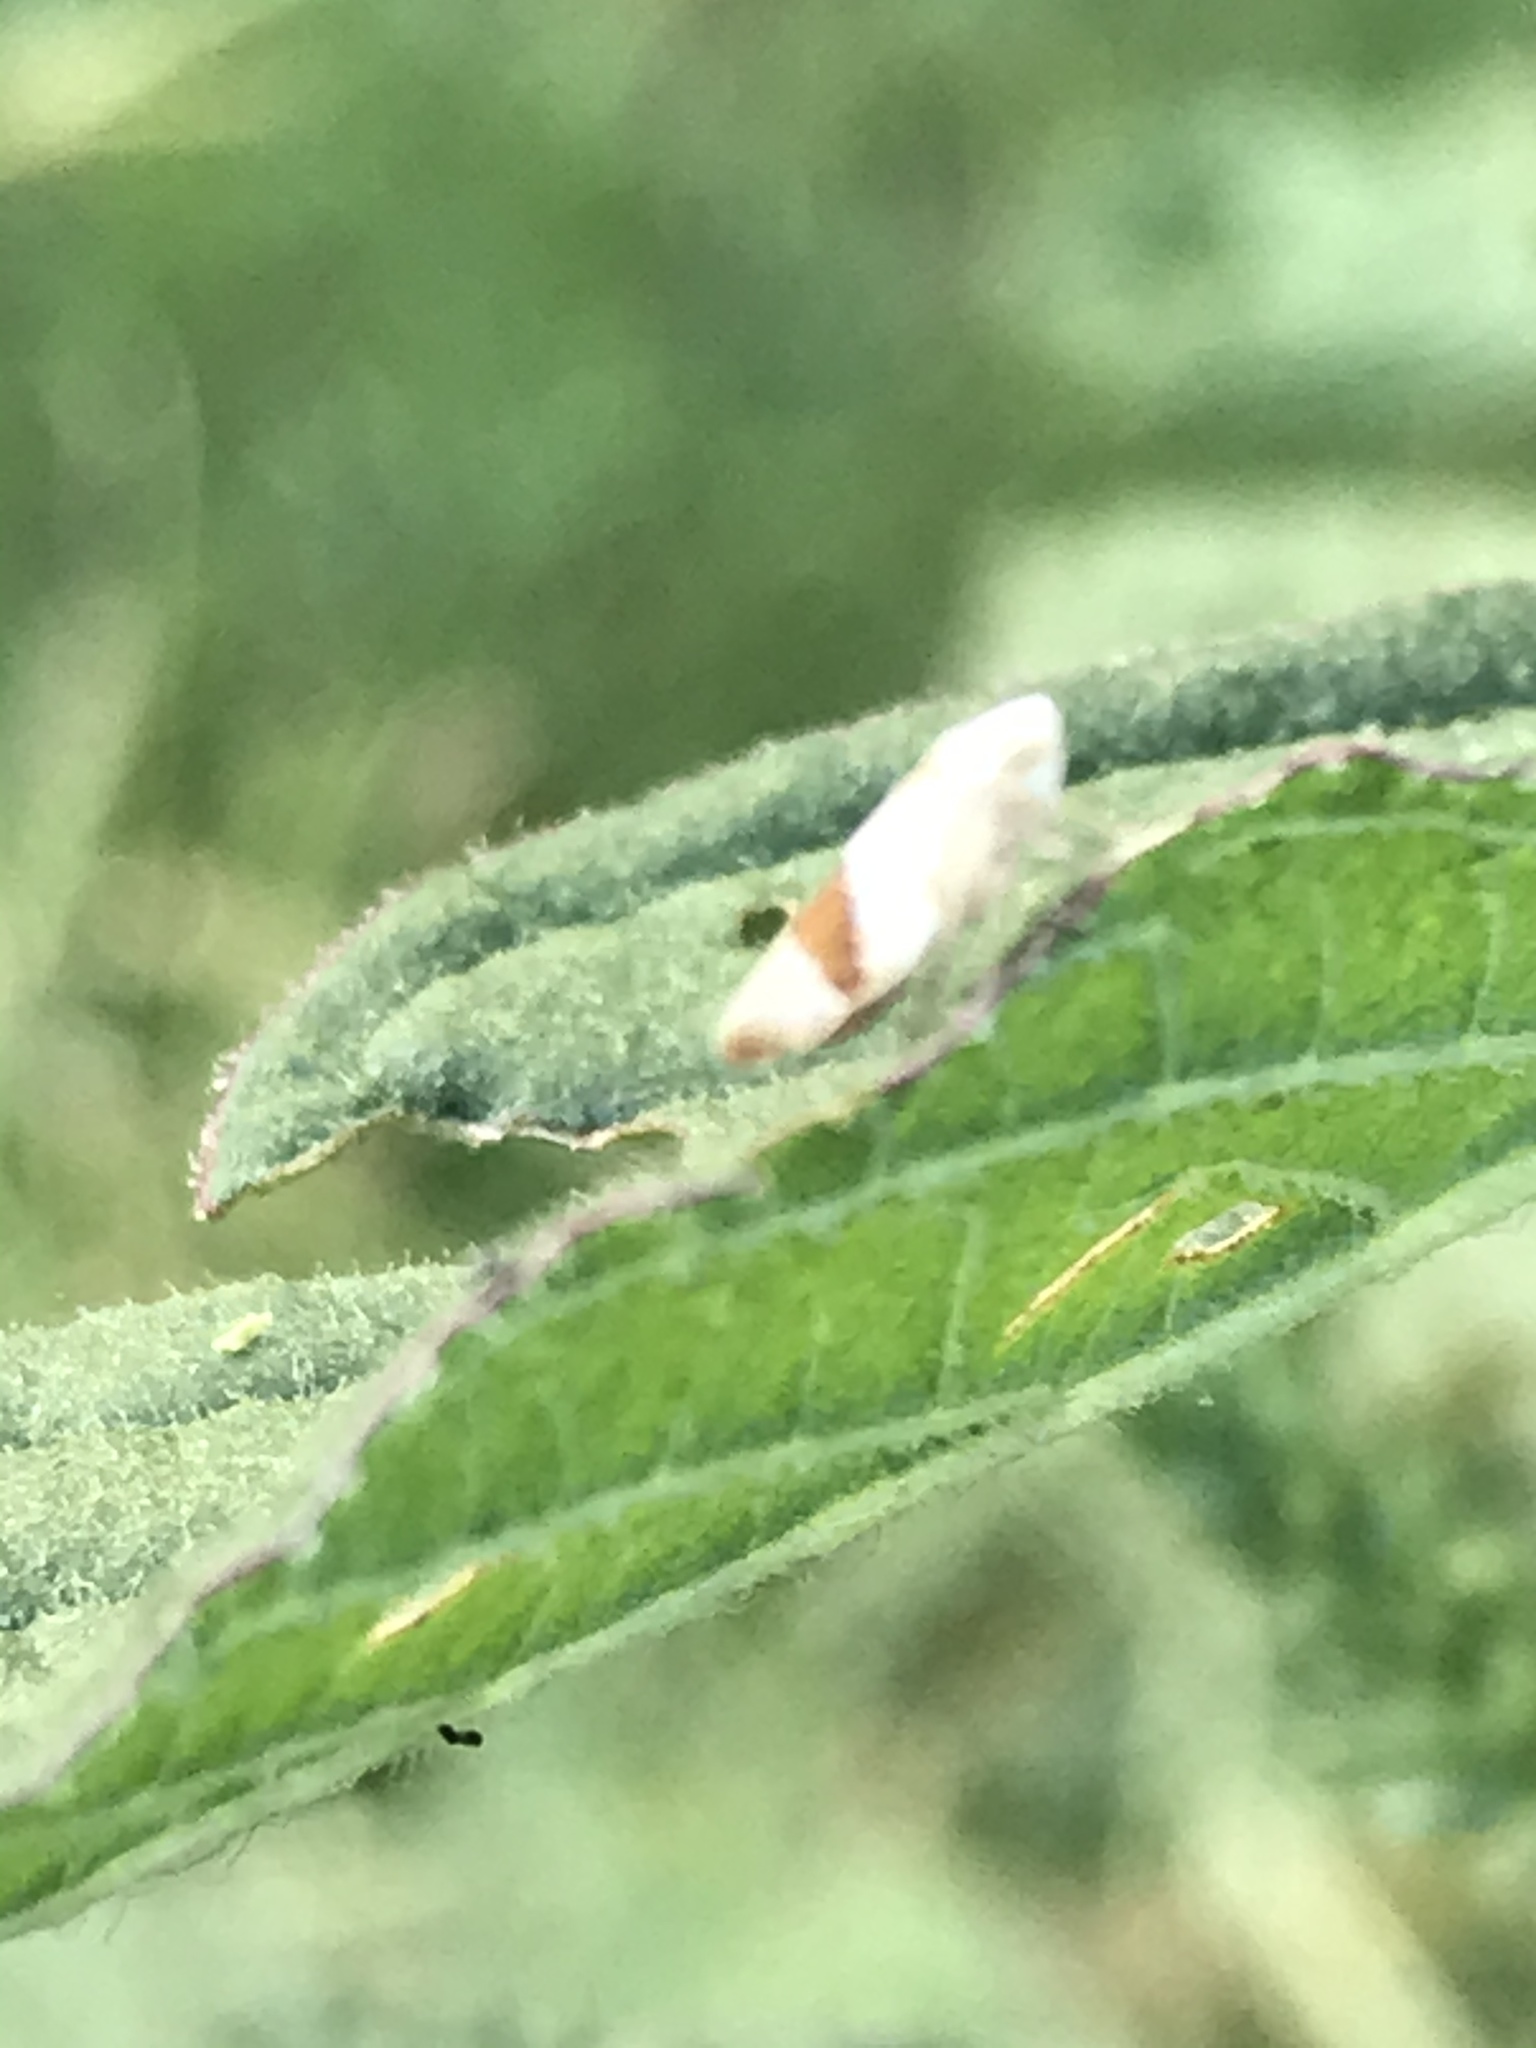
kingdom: Animalia
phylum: Arthropoda
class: Insecta
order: Hemiptera
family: Cicadellidae
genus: Norvellina
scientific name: Norvellina seminuda
